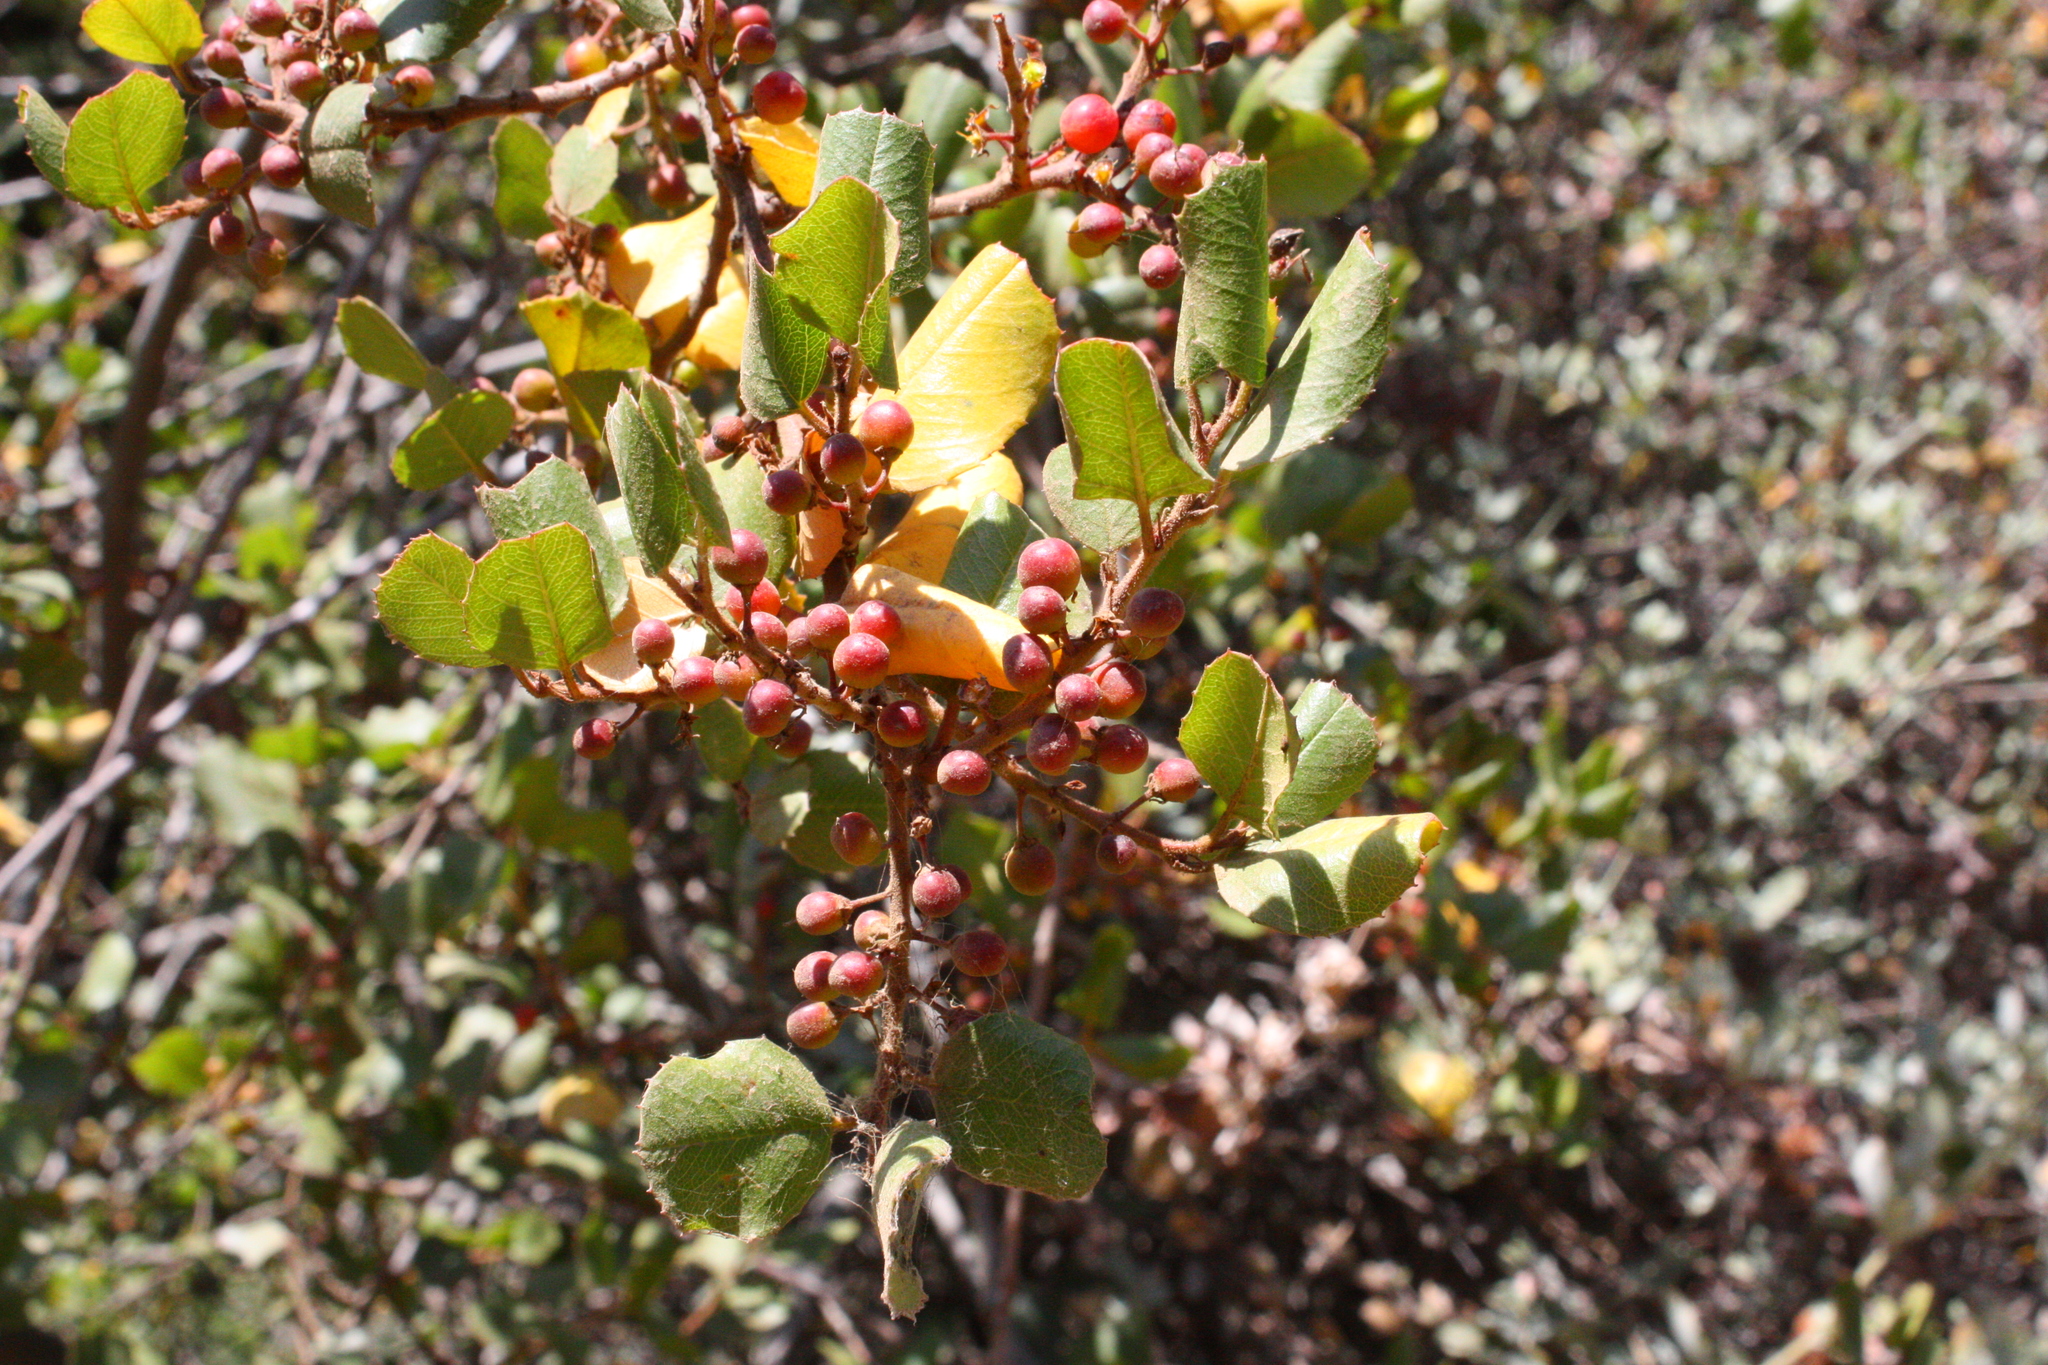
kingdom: Plantae
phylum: Tracheophyta
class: Magnoliopsida
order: Rosales
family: Rhamnaceae
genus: Endotropis
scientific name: Endotropis crocea
